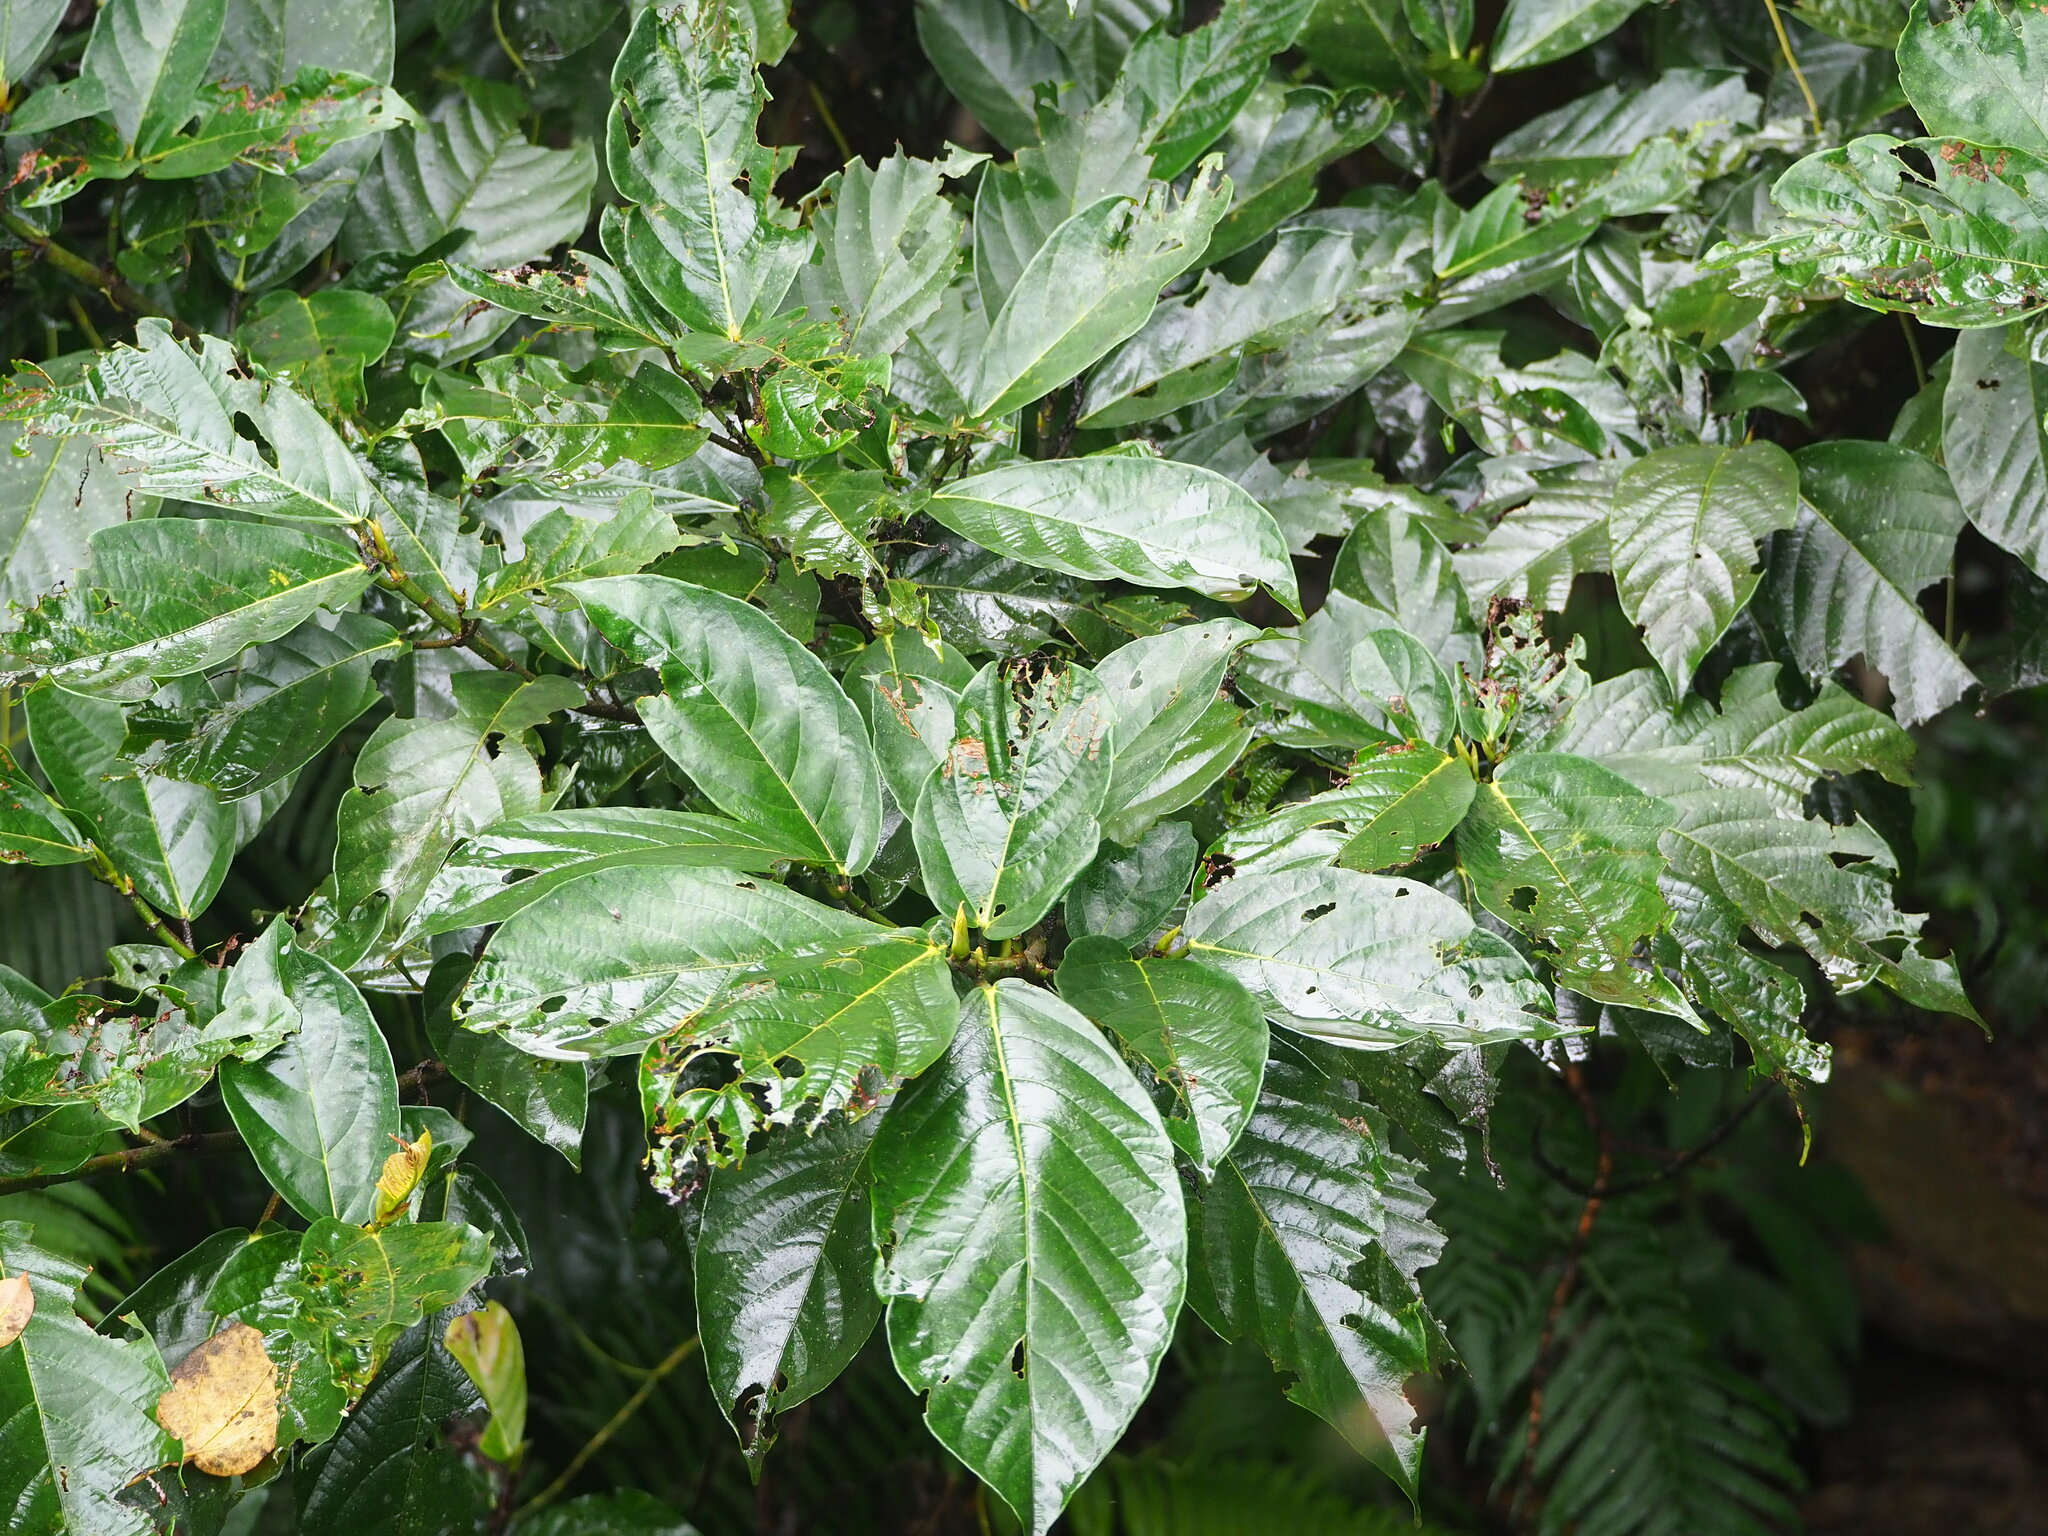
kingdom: Plantae
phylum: Tracheophyta
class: Magnoliopsida
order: Rosales
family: Moraceae
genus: Ficus
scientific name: Ficus benguetensis
